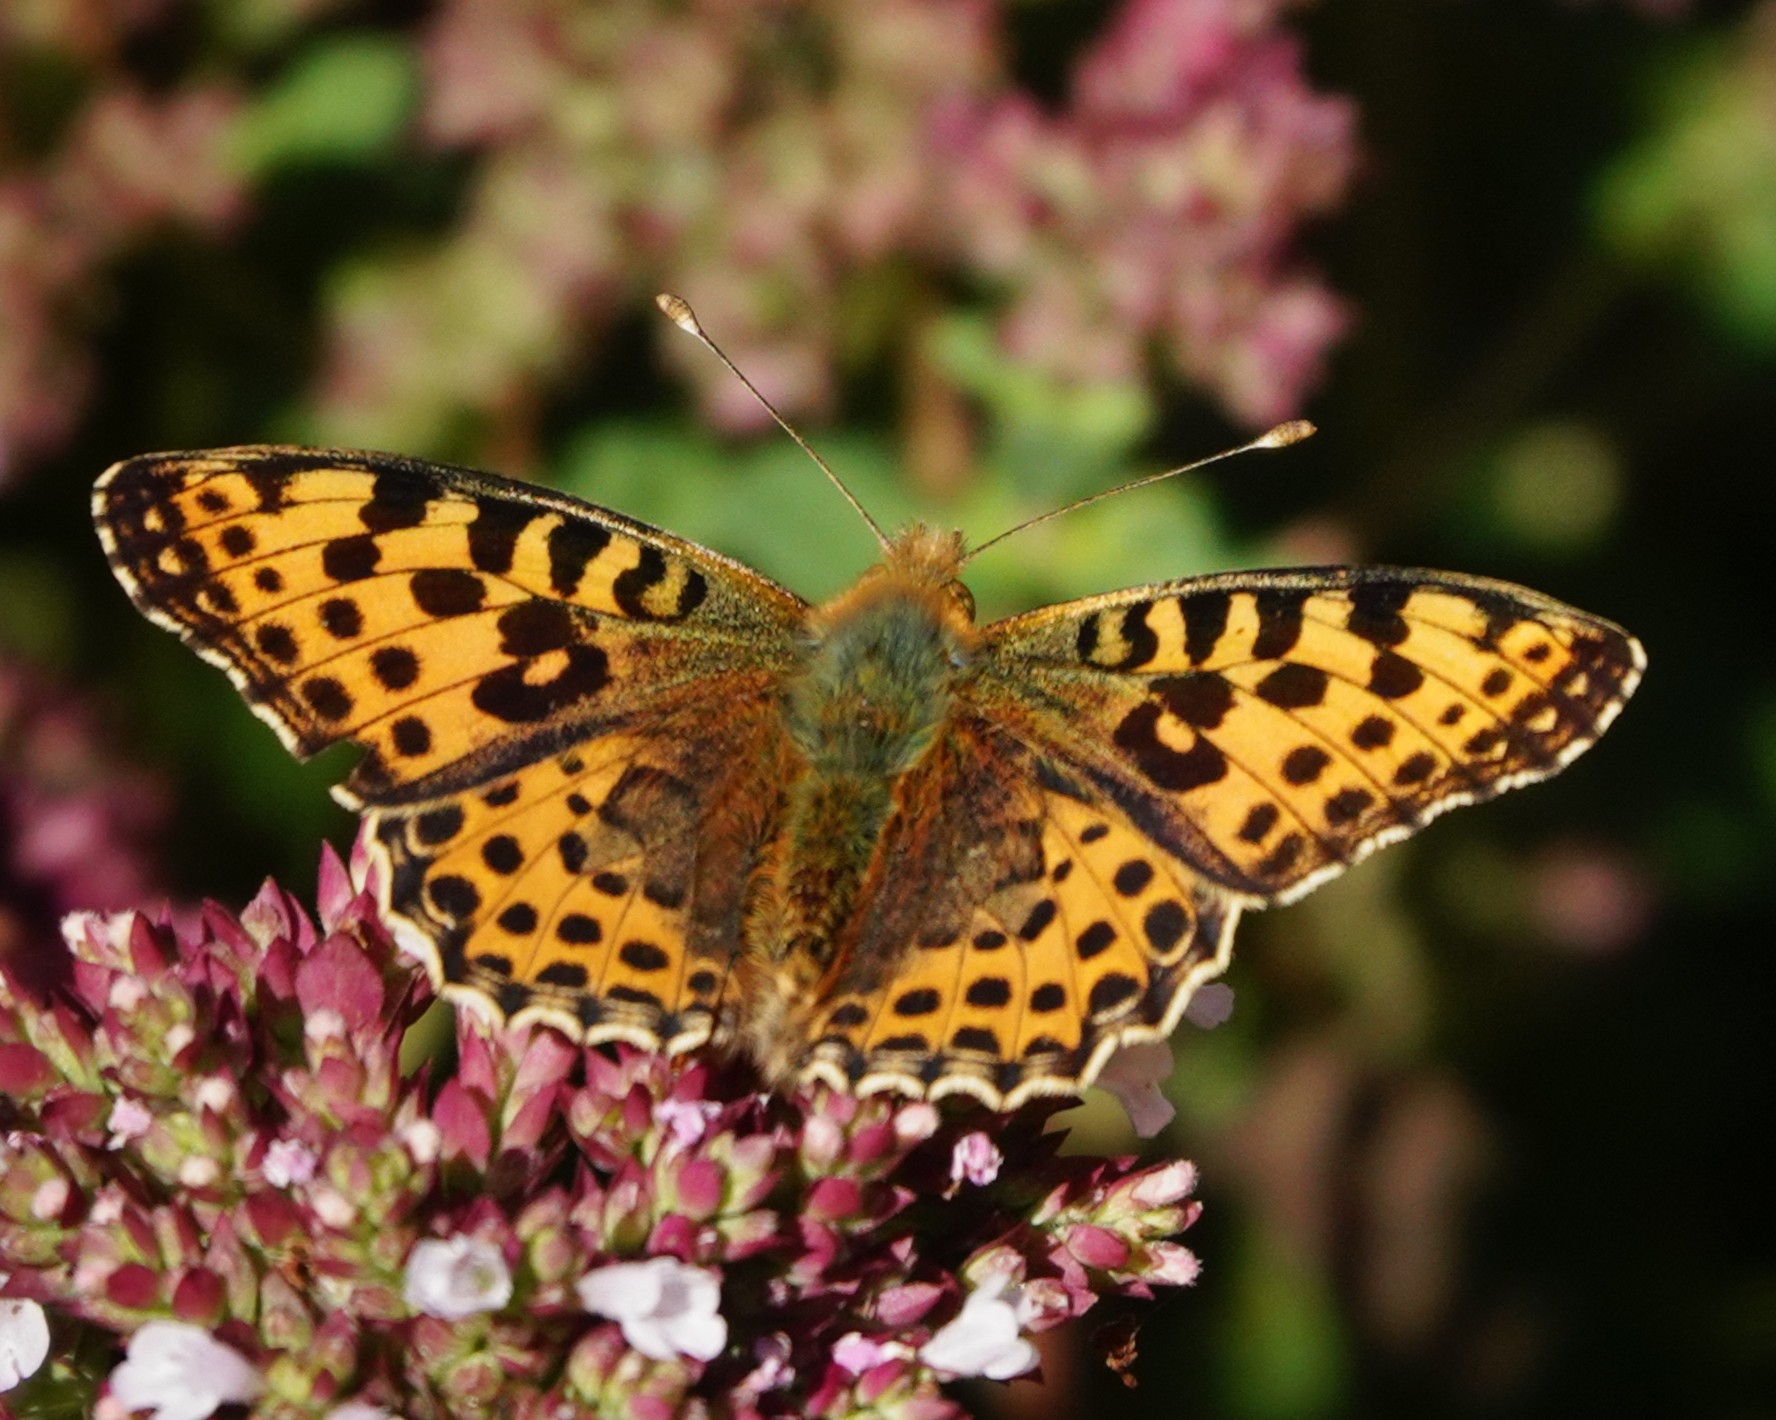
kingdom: Animalia
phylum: Arthropoda
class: Insecta
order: Lepidoptera
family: Nymphalidae
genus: Issoria
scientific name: Issoria lathonia
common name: Queen of spain fritillary
